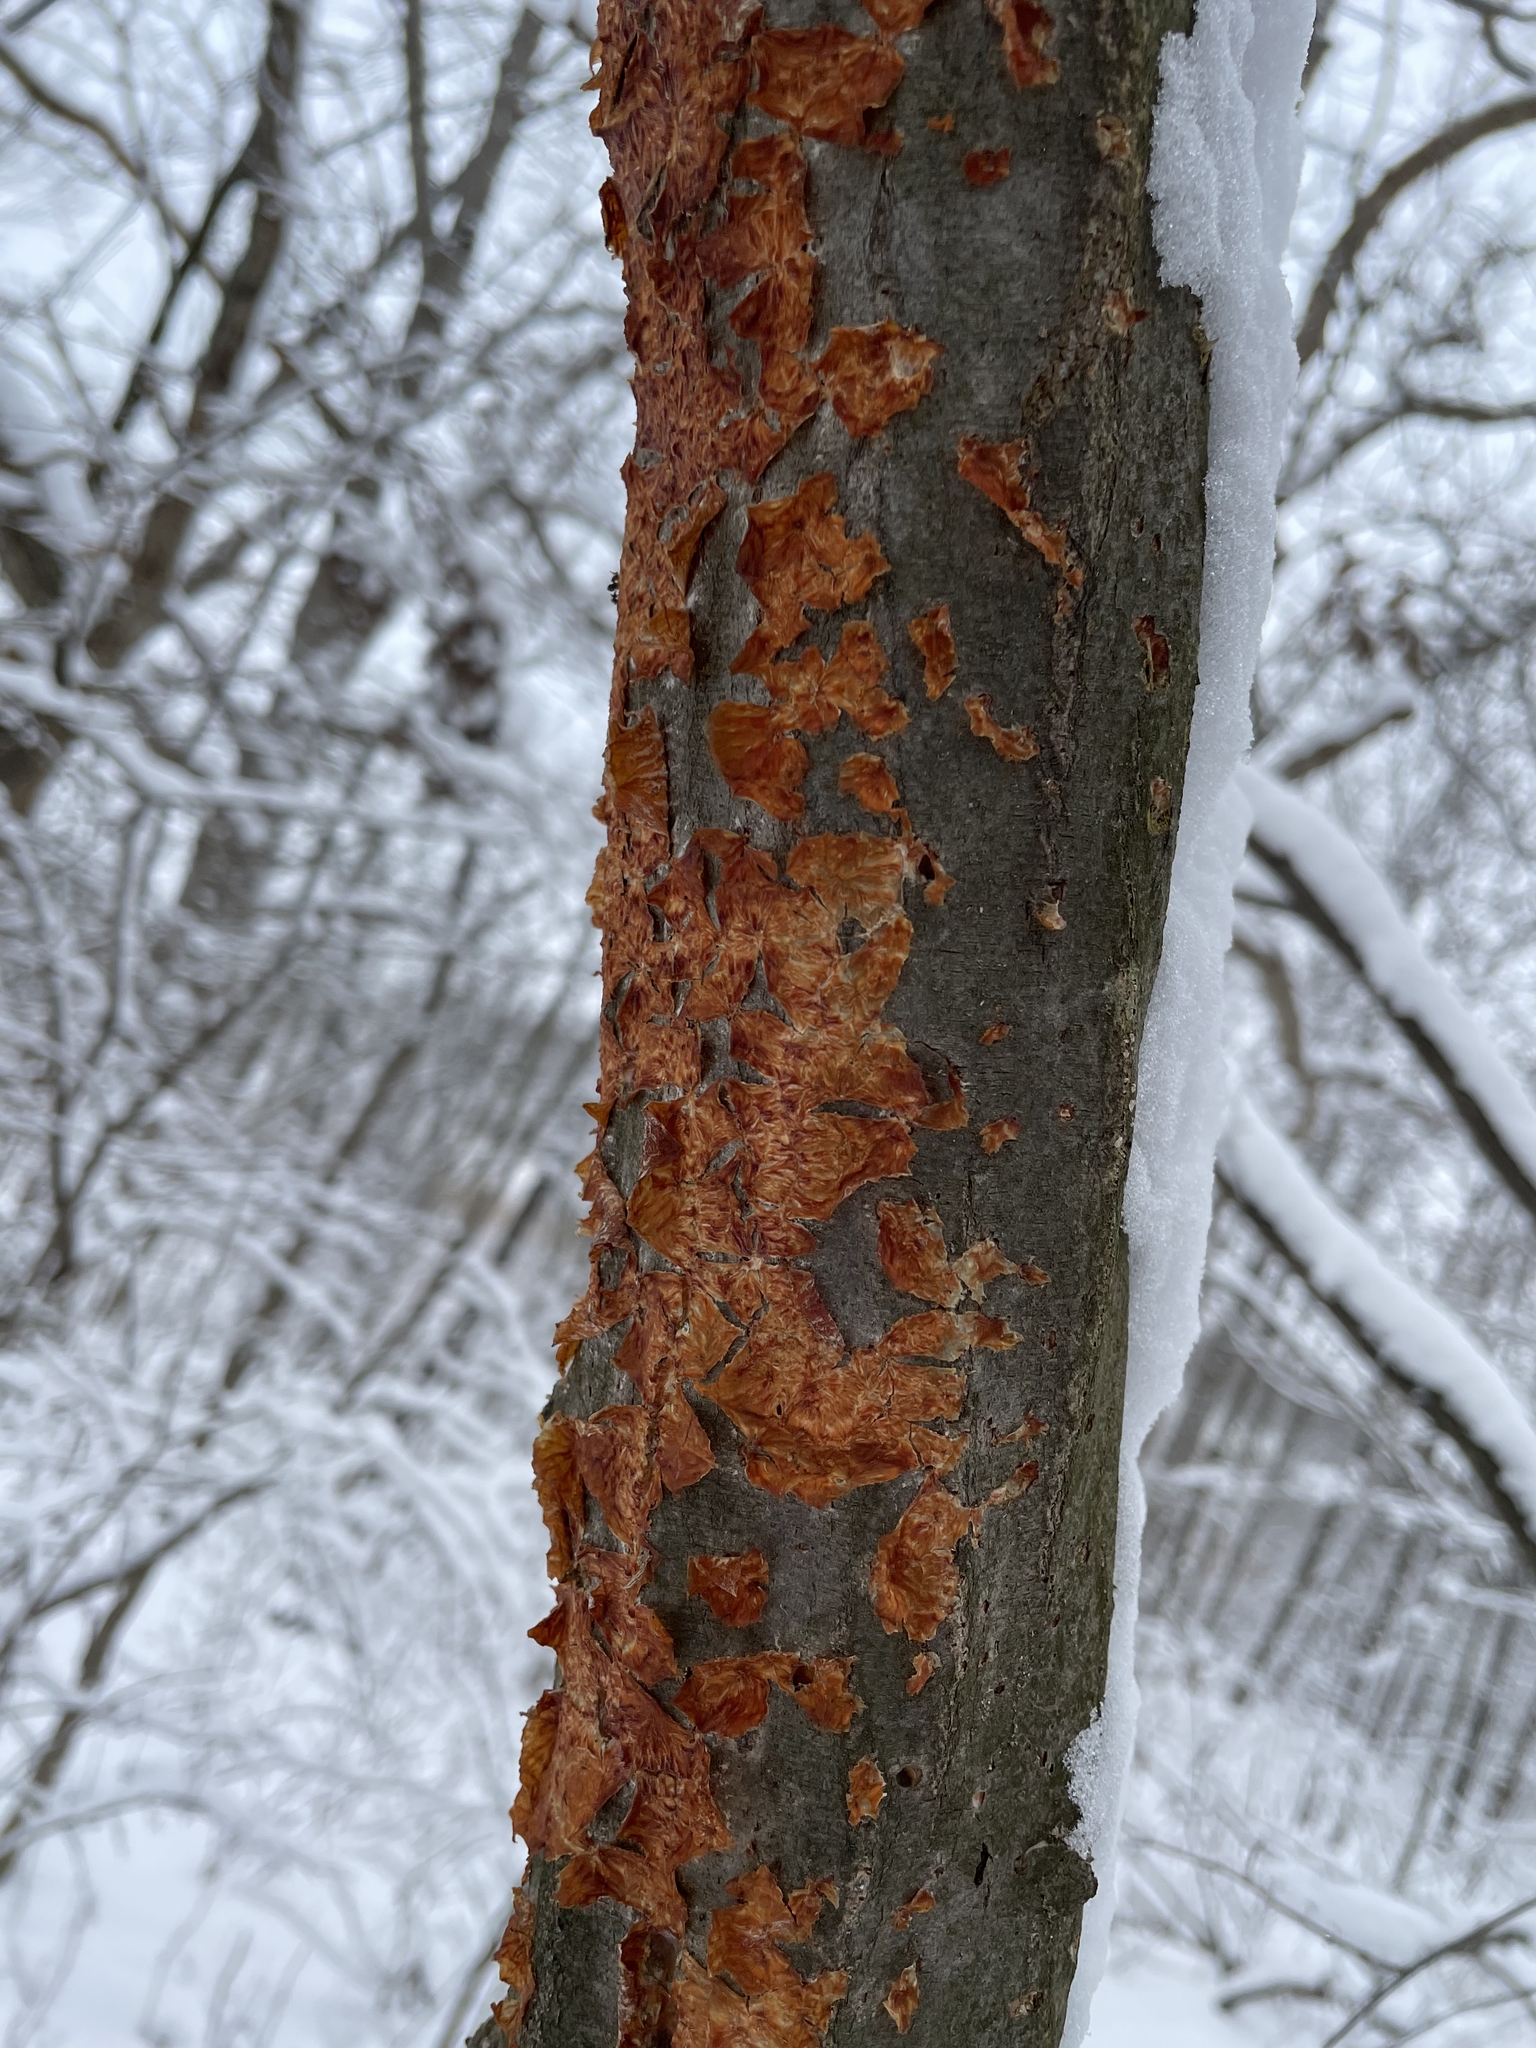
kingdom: Fungi
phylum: Basidiomycota
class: Agaricomycetes
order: Polyporales
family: Meruliaceae
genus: Phlebia
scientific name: Phlebia radiata
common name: Wrinkled crust
